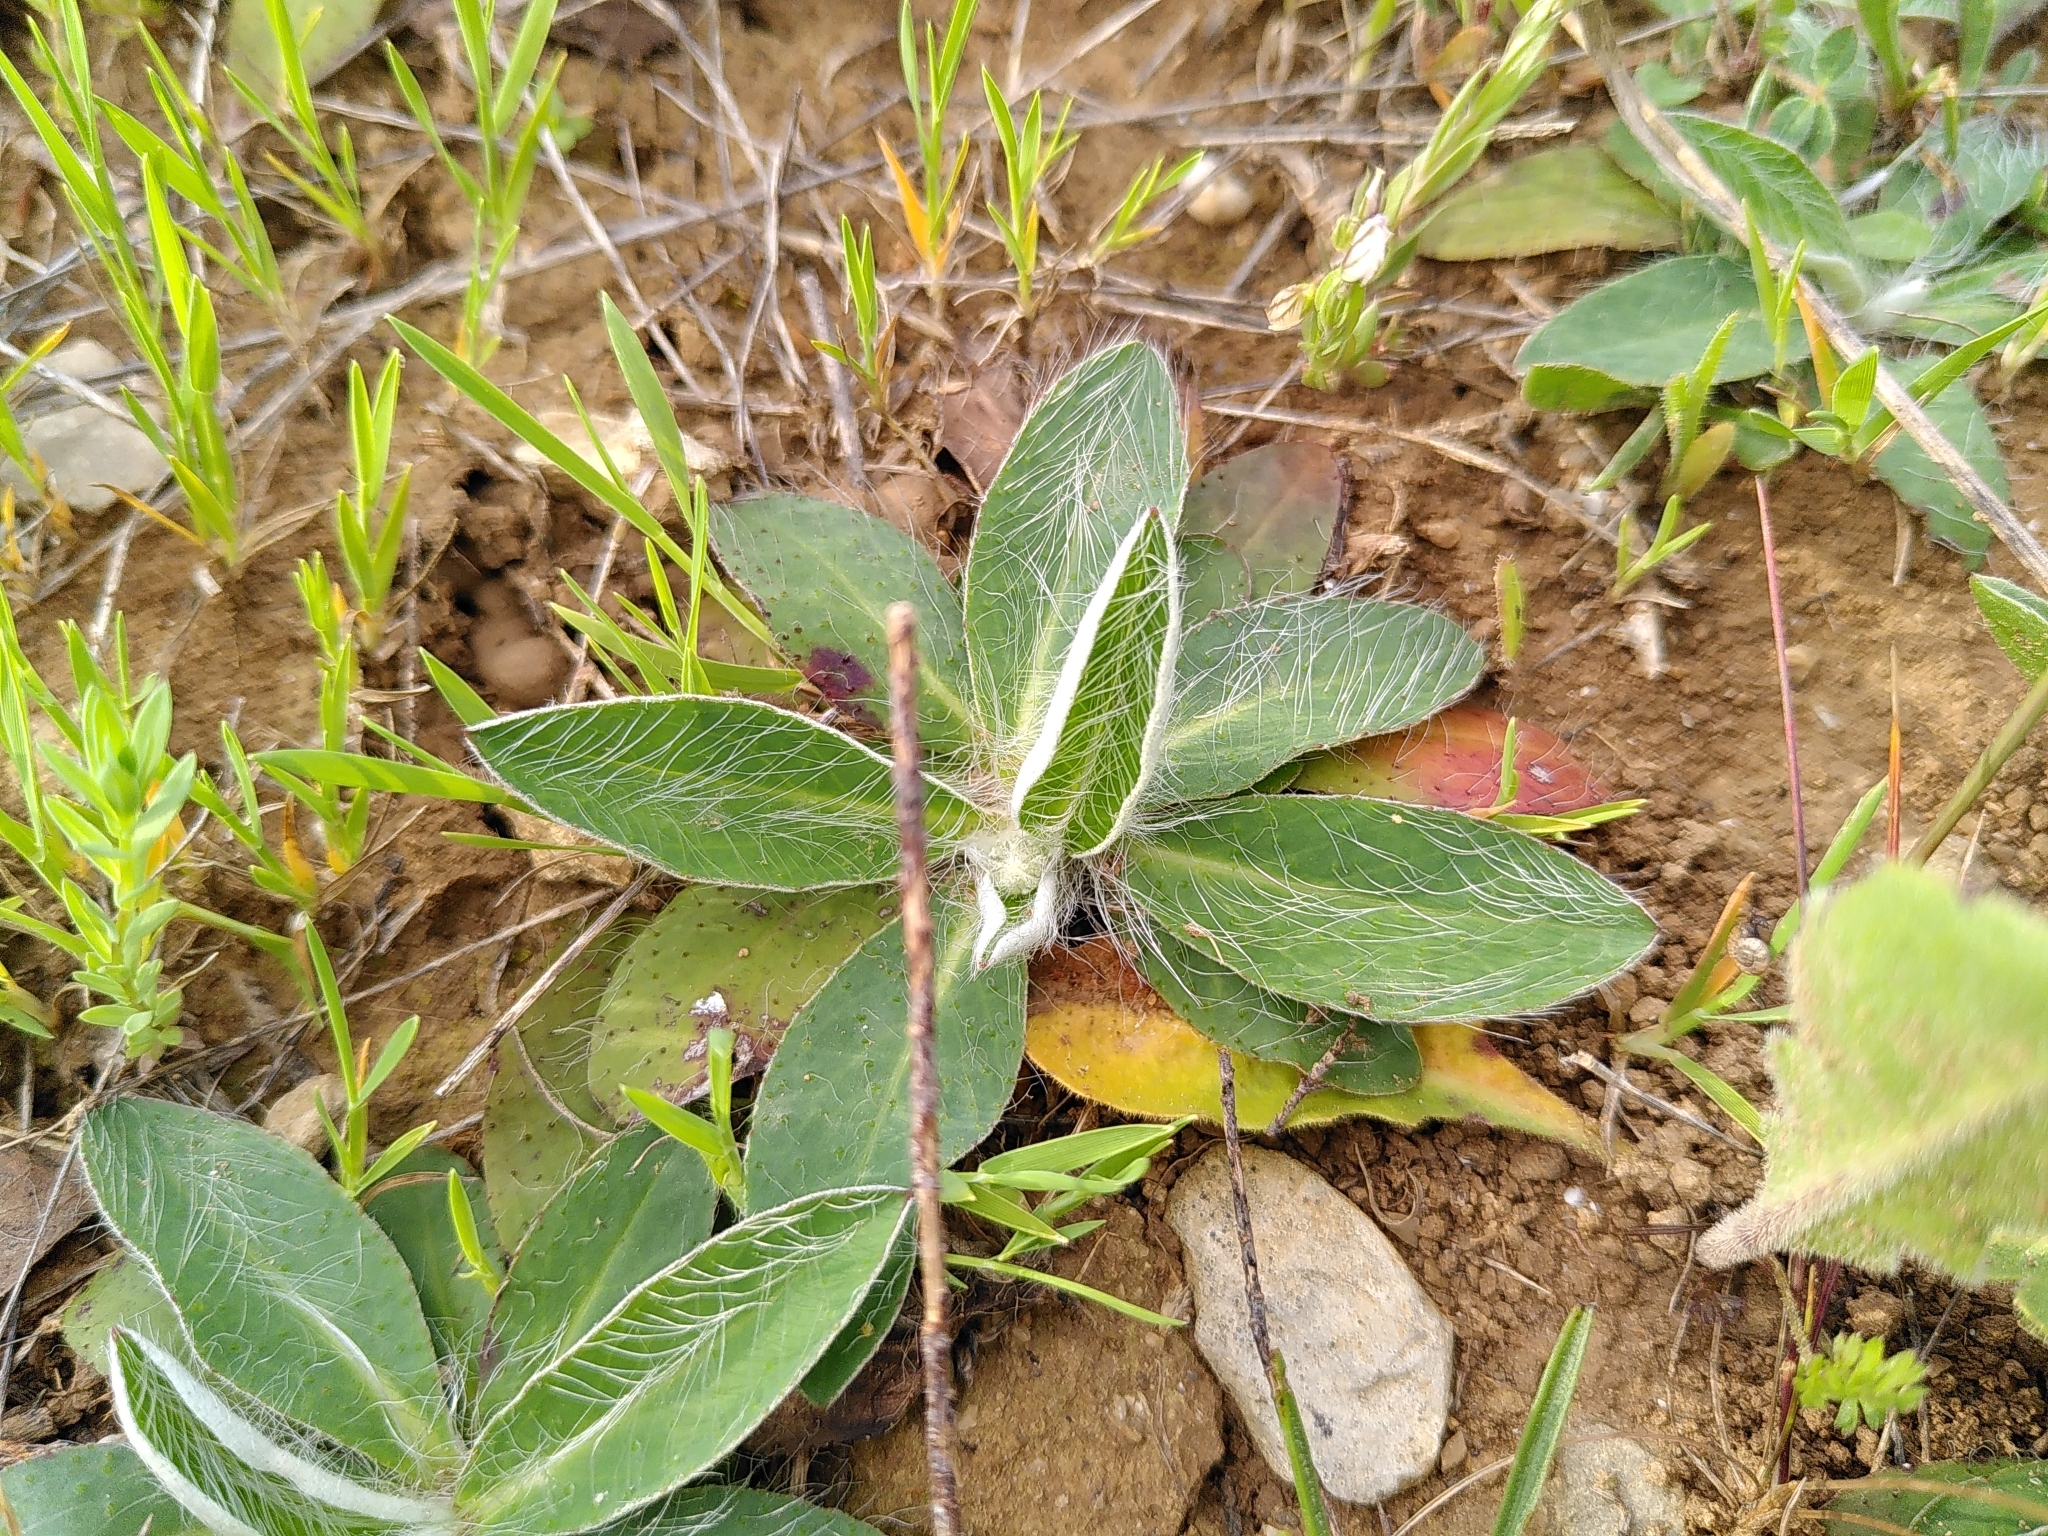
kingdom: Plantae
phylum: Tracheophyta
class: Magnoliopsida
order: Asterales
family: Asteraceae
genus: Pilosella
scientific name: Pilosella officinarum
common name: Mouse-ear hawkweed
